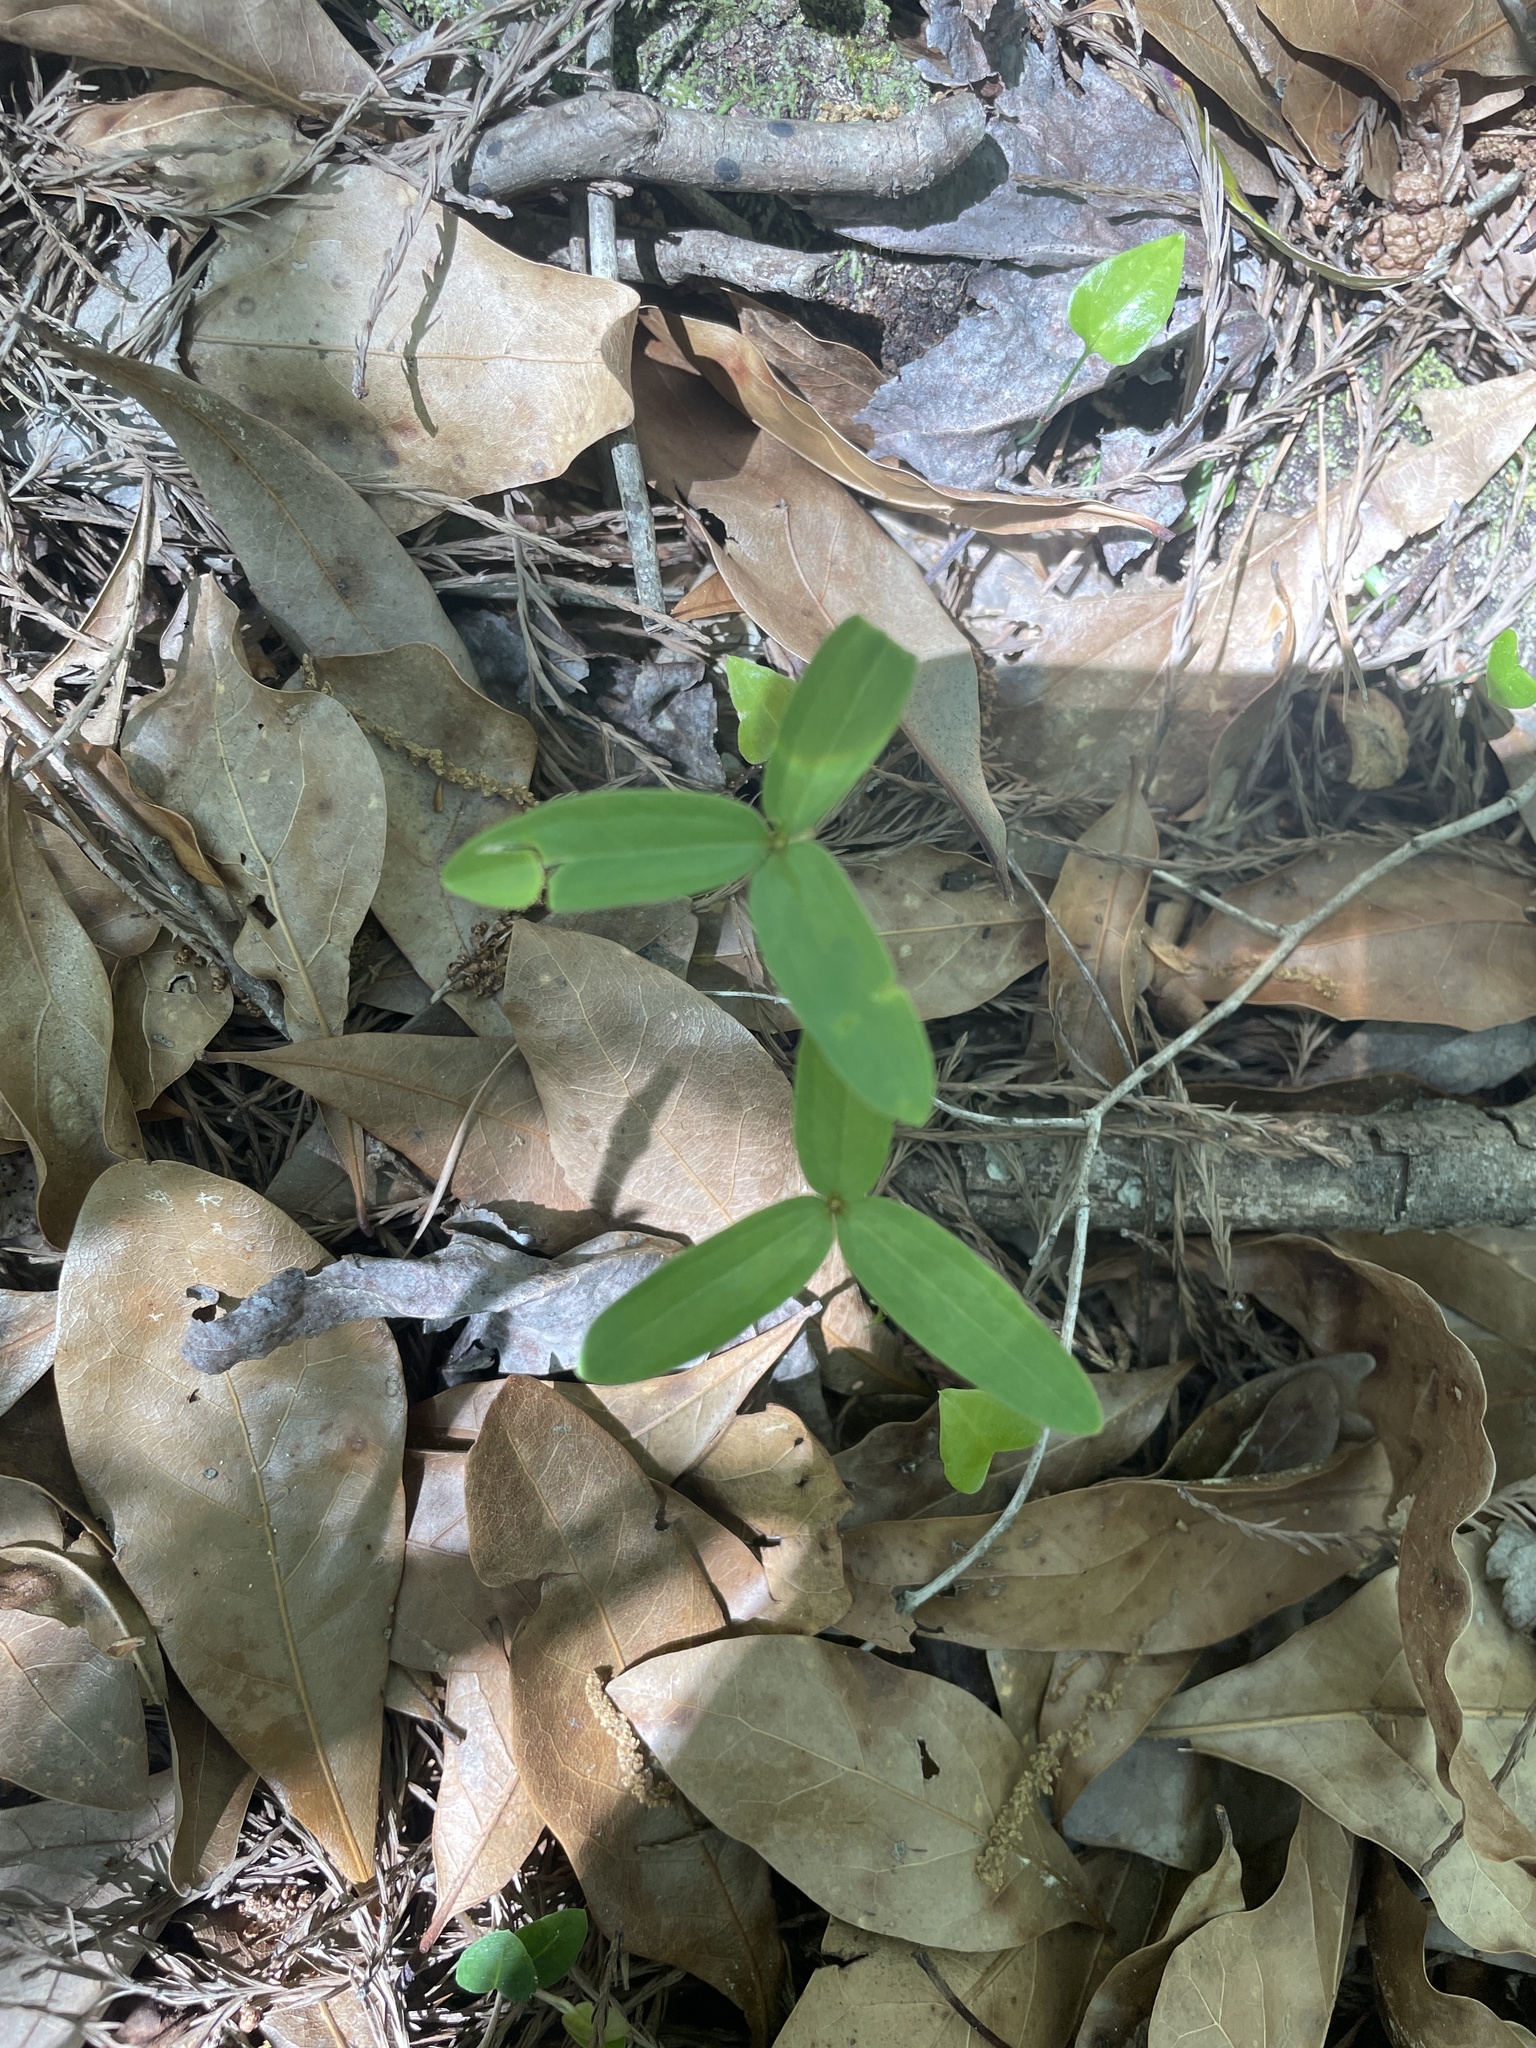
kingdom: Plantae
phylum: Tracheophyta
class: Liliopsida
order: Liliales
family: Melanthiaceae
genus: Trillium
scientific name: Trillium pusillum
